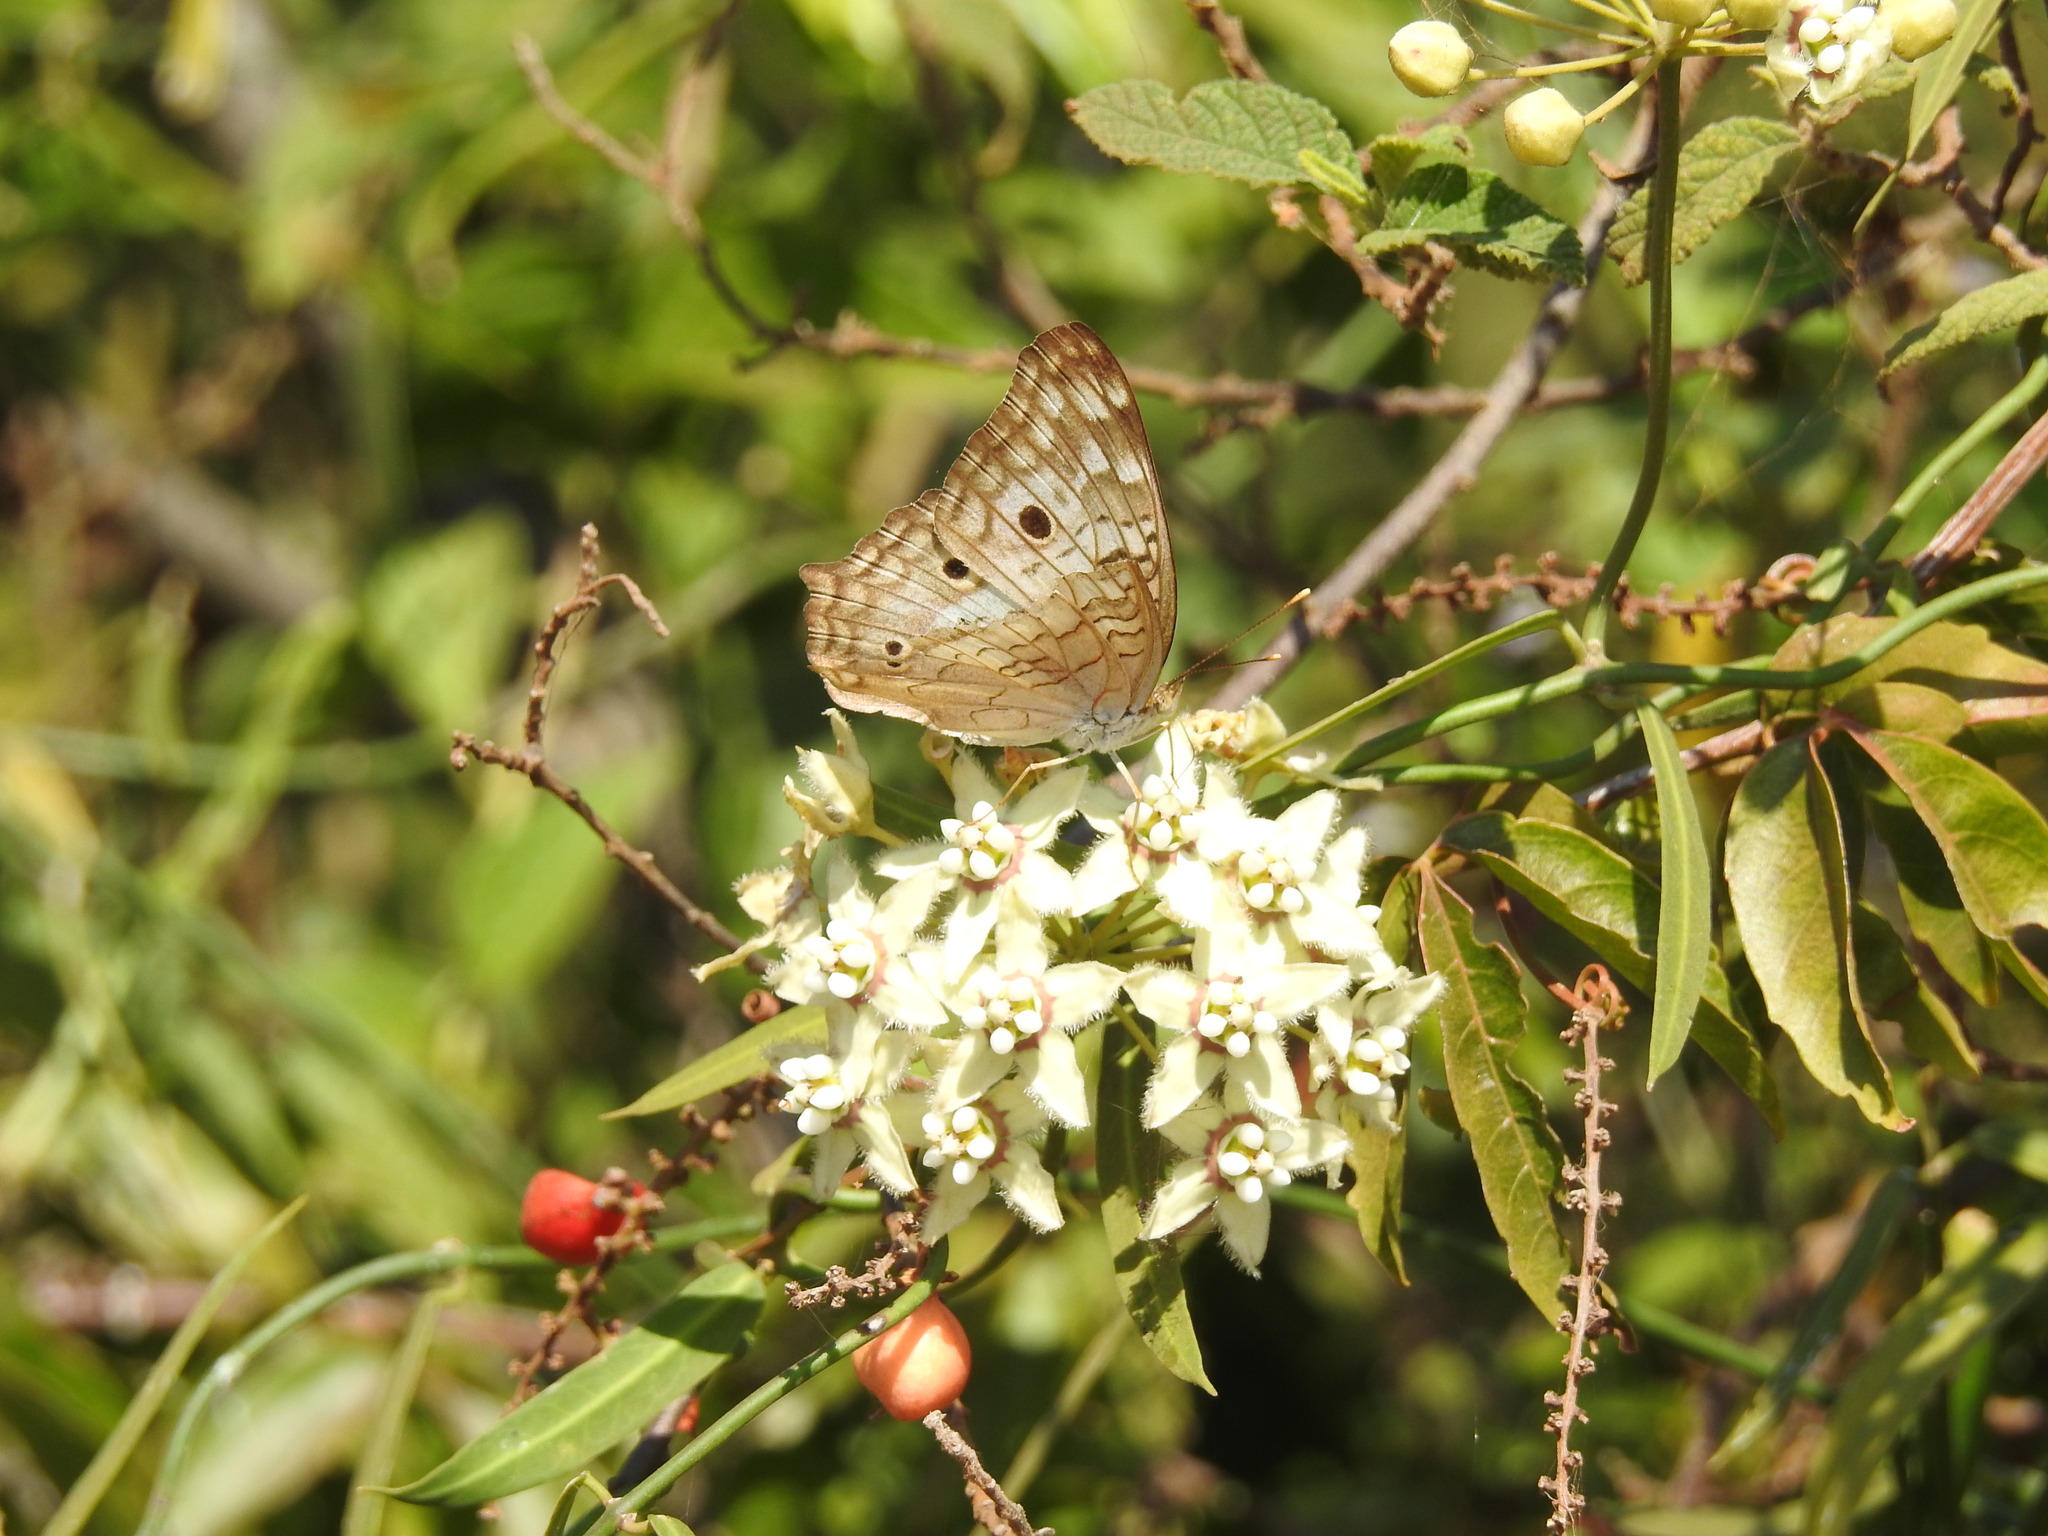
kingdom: Animalia
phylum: Arthropoda
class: Insecta
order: Lepidoptera
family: Nymphalidae
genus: Anartia
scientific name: Anartia jatrophae
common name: White peacock
